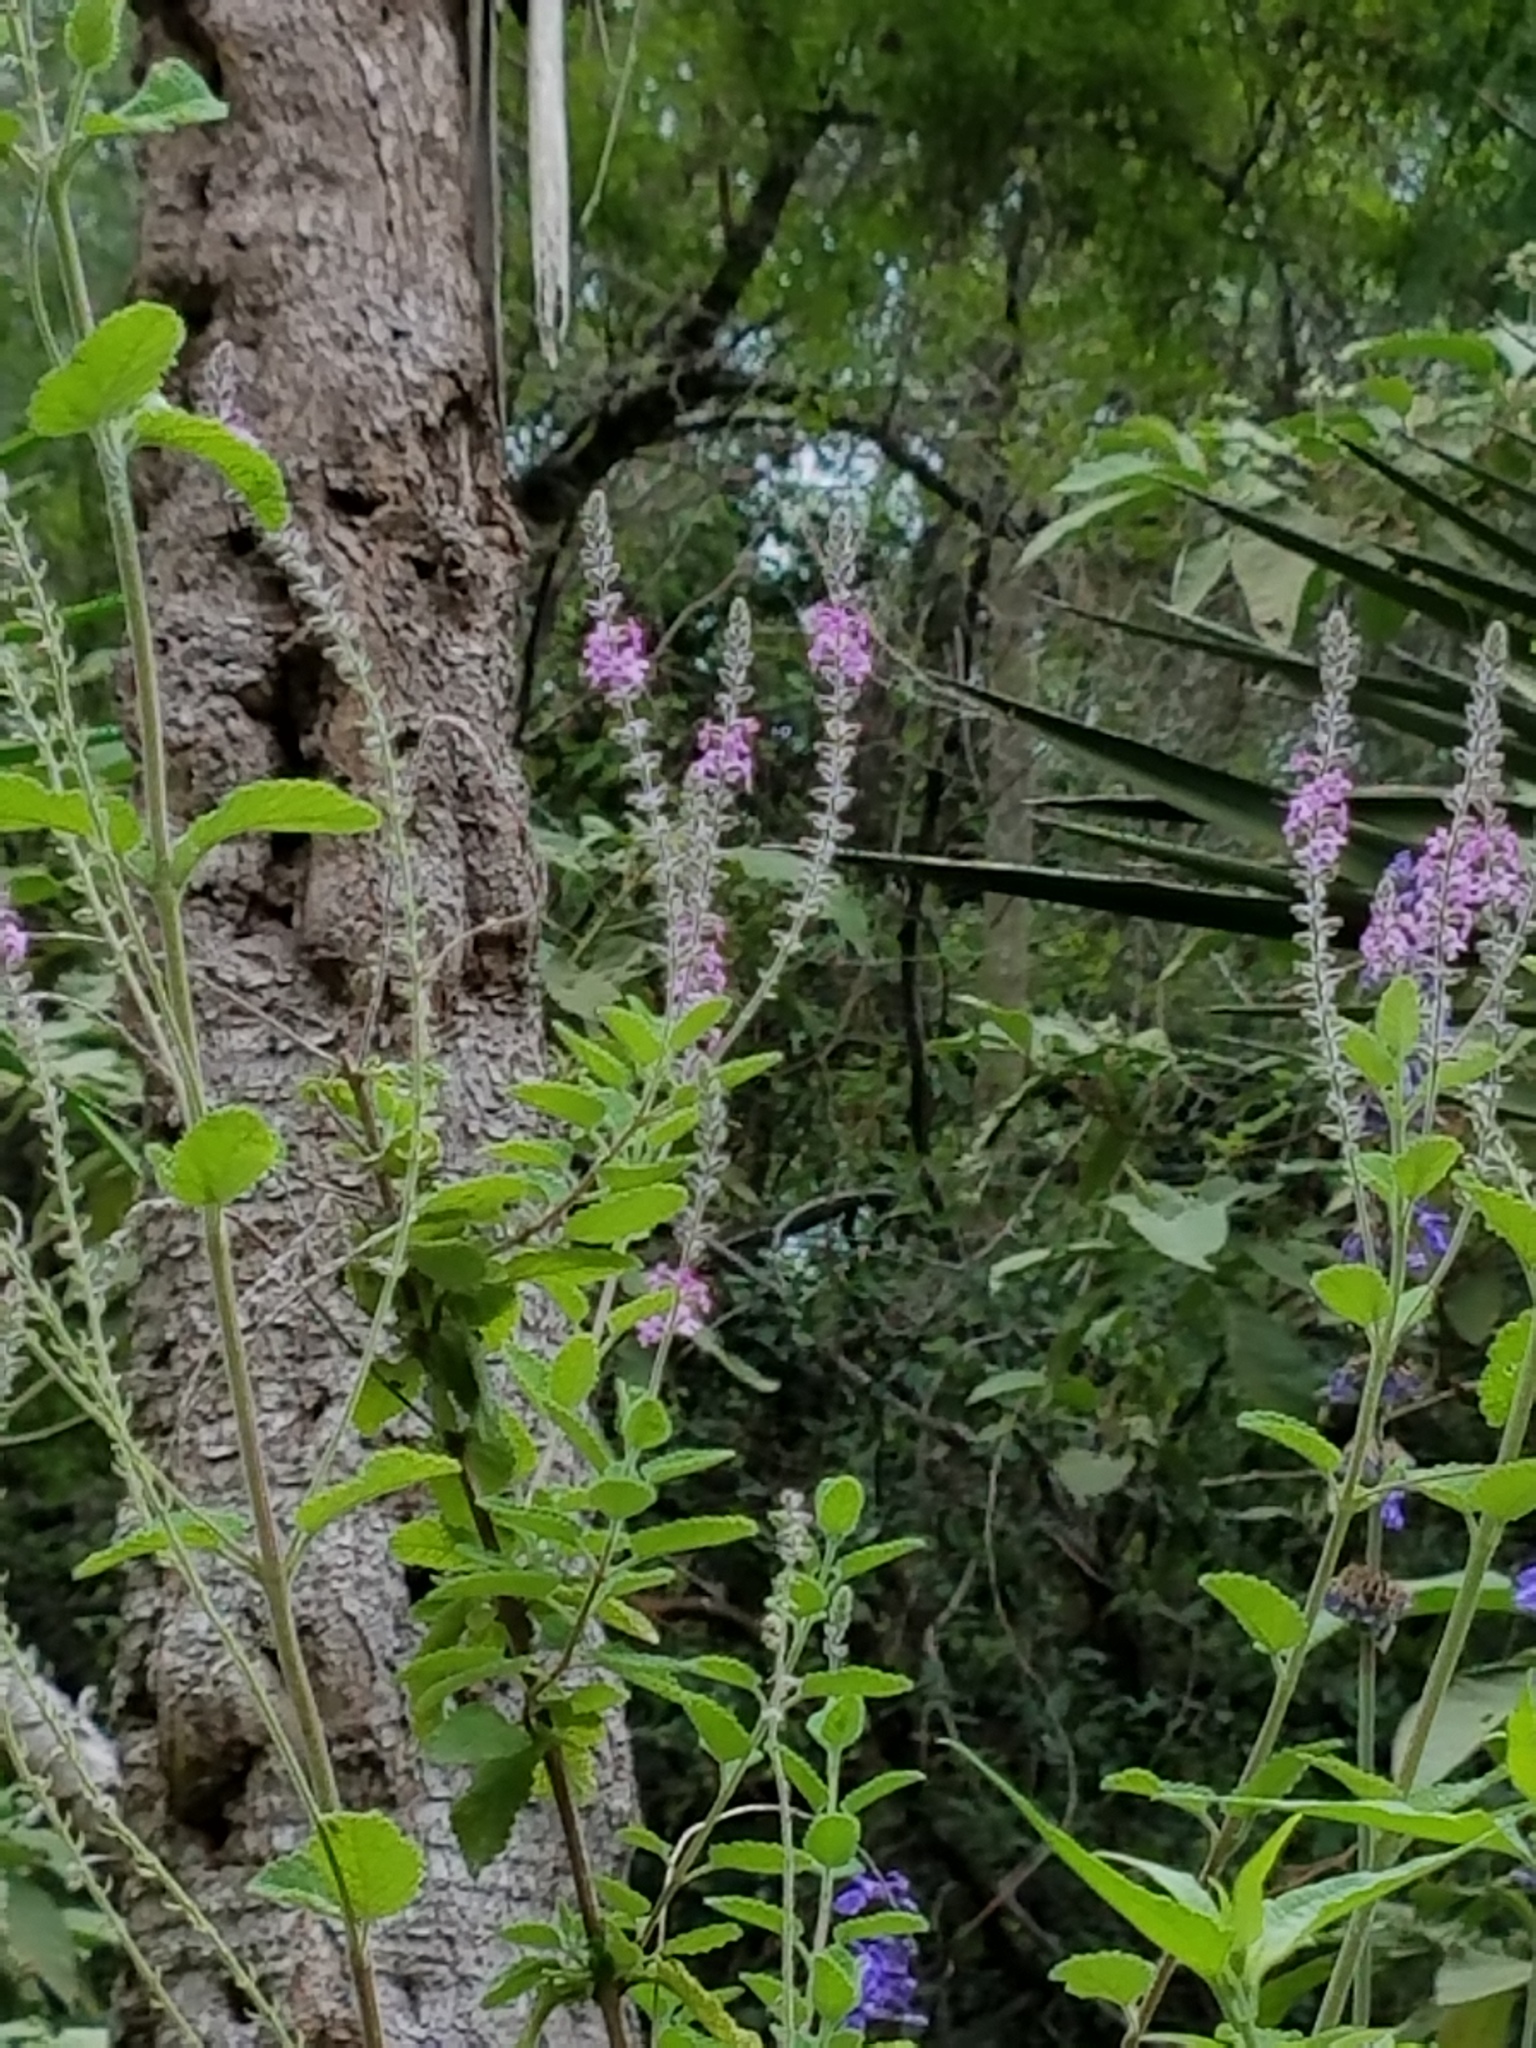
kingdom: Plantae
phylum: Tracheophyta
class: Magnoliopsida
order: Lamiales
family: Verbenaceae
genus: Aloysia
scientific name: Aloysia macrostachya
